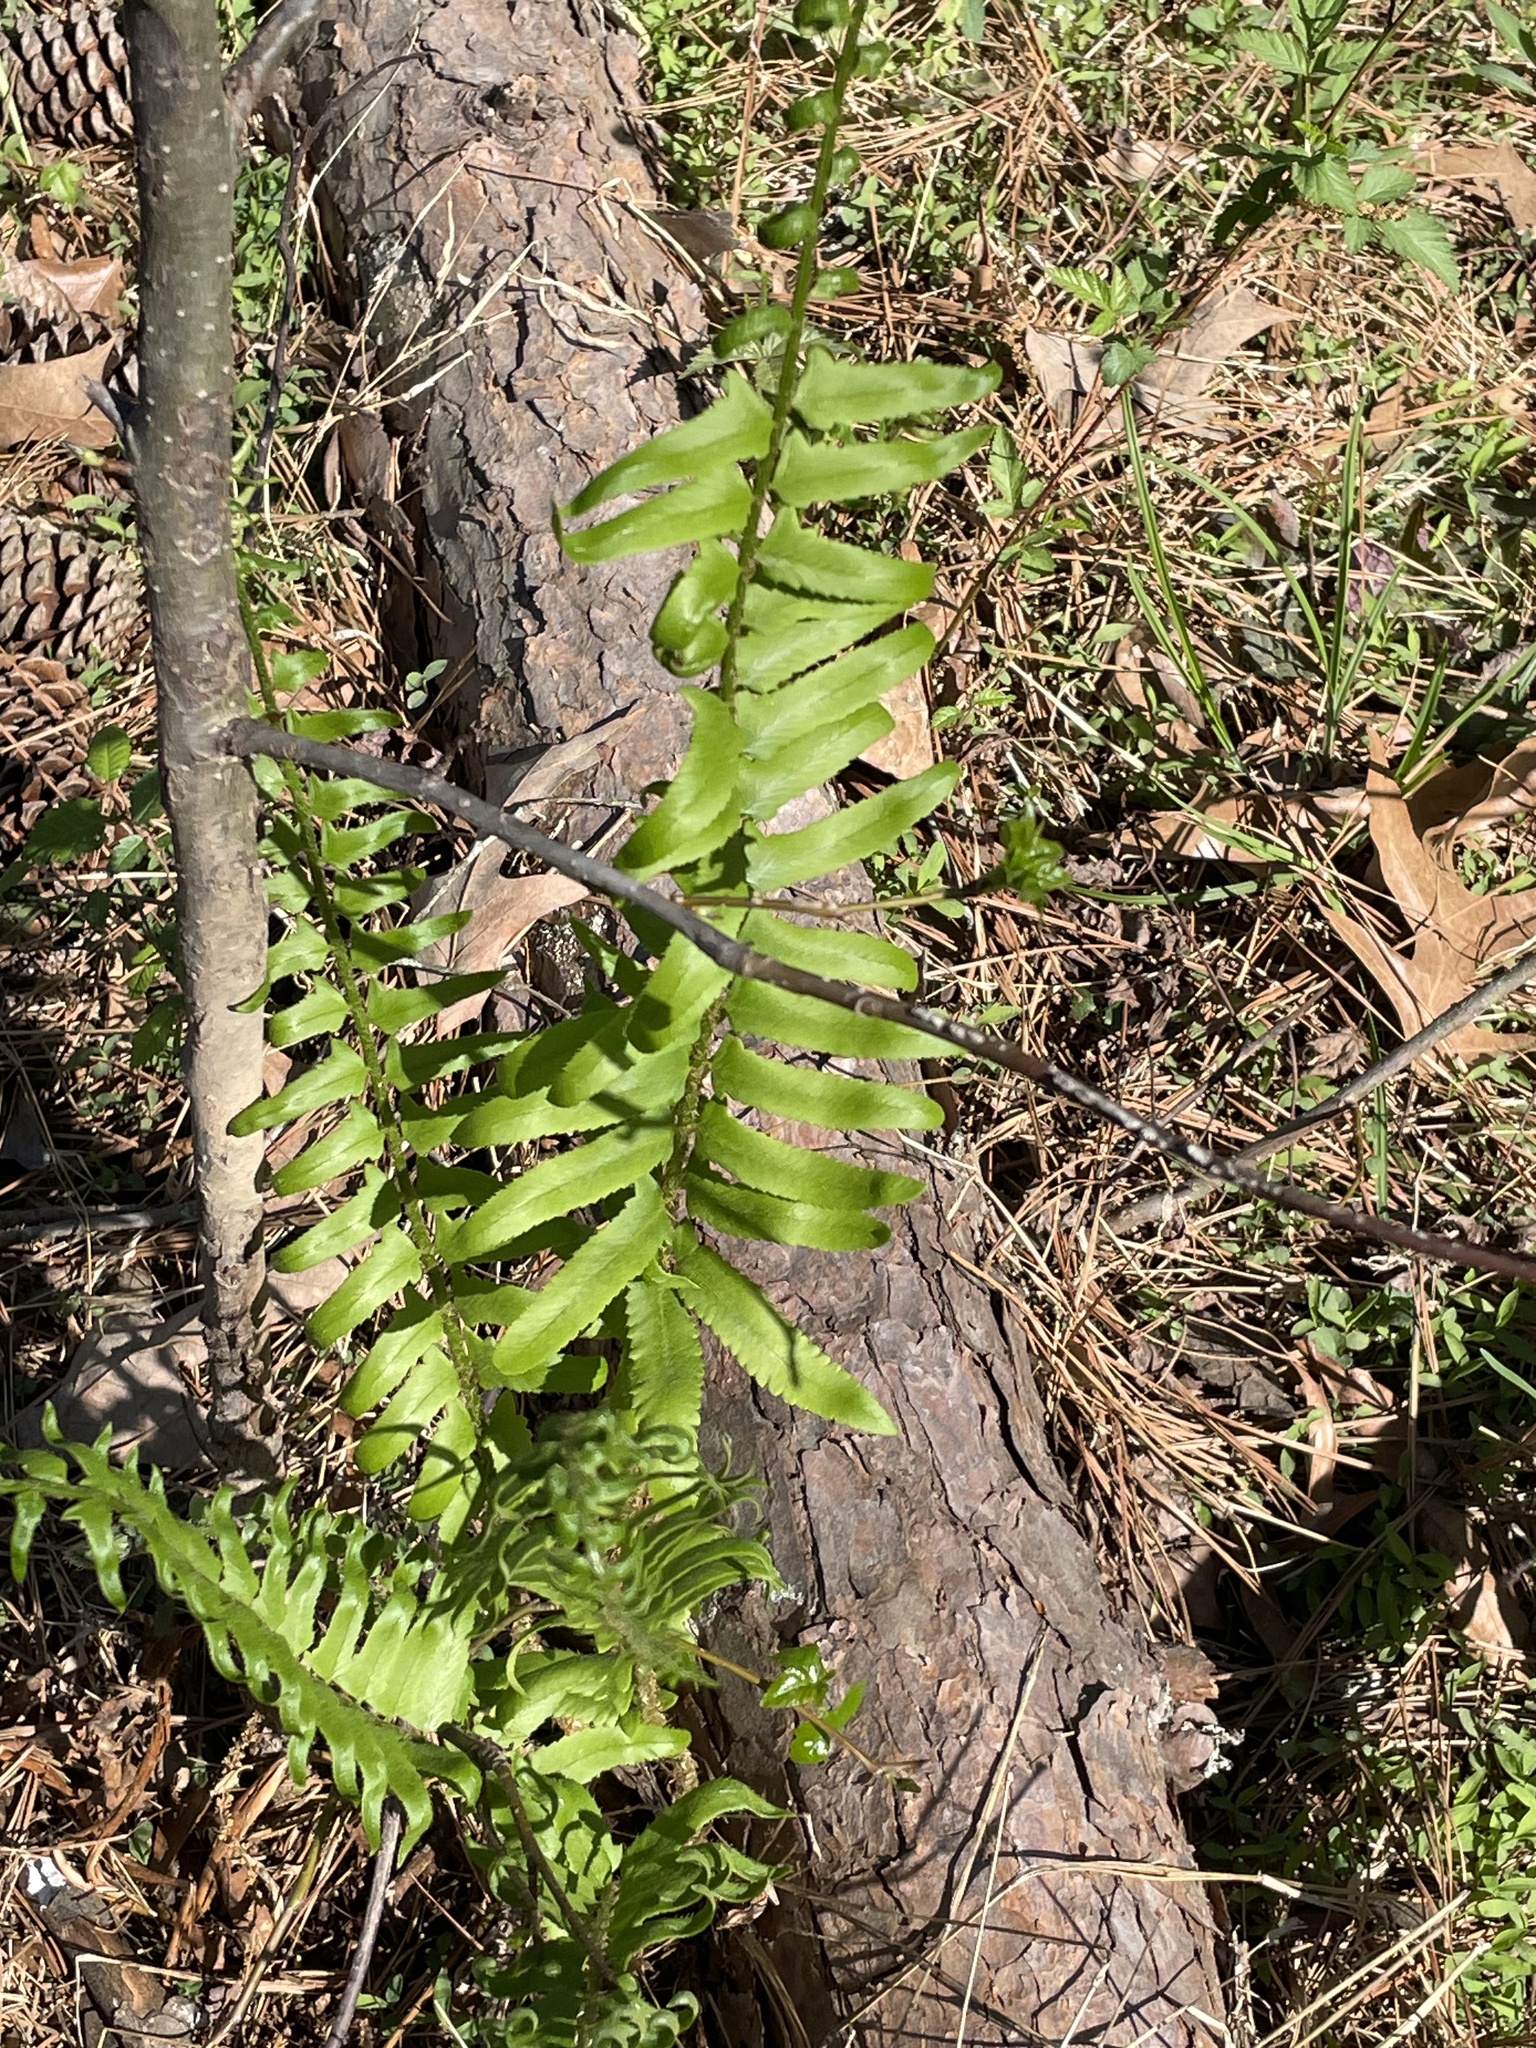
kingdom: Plantae
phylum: Tracheophyta
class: Polypodiopsida
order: Polypodiales
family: Dryopteridaceae
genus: Polystichum
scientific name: Polystichum acrostichoides
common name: Christmas fern
